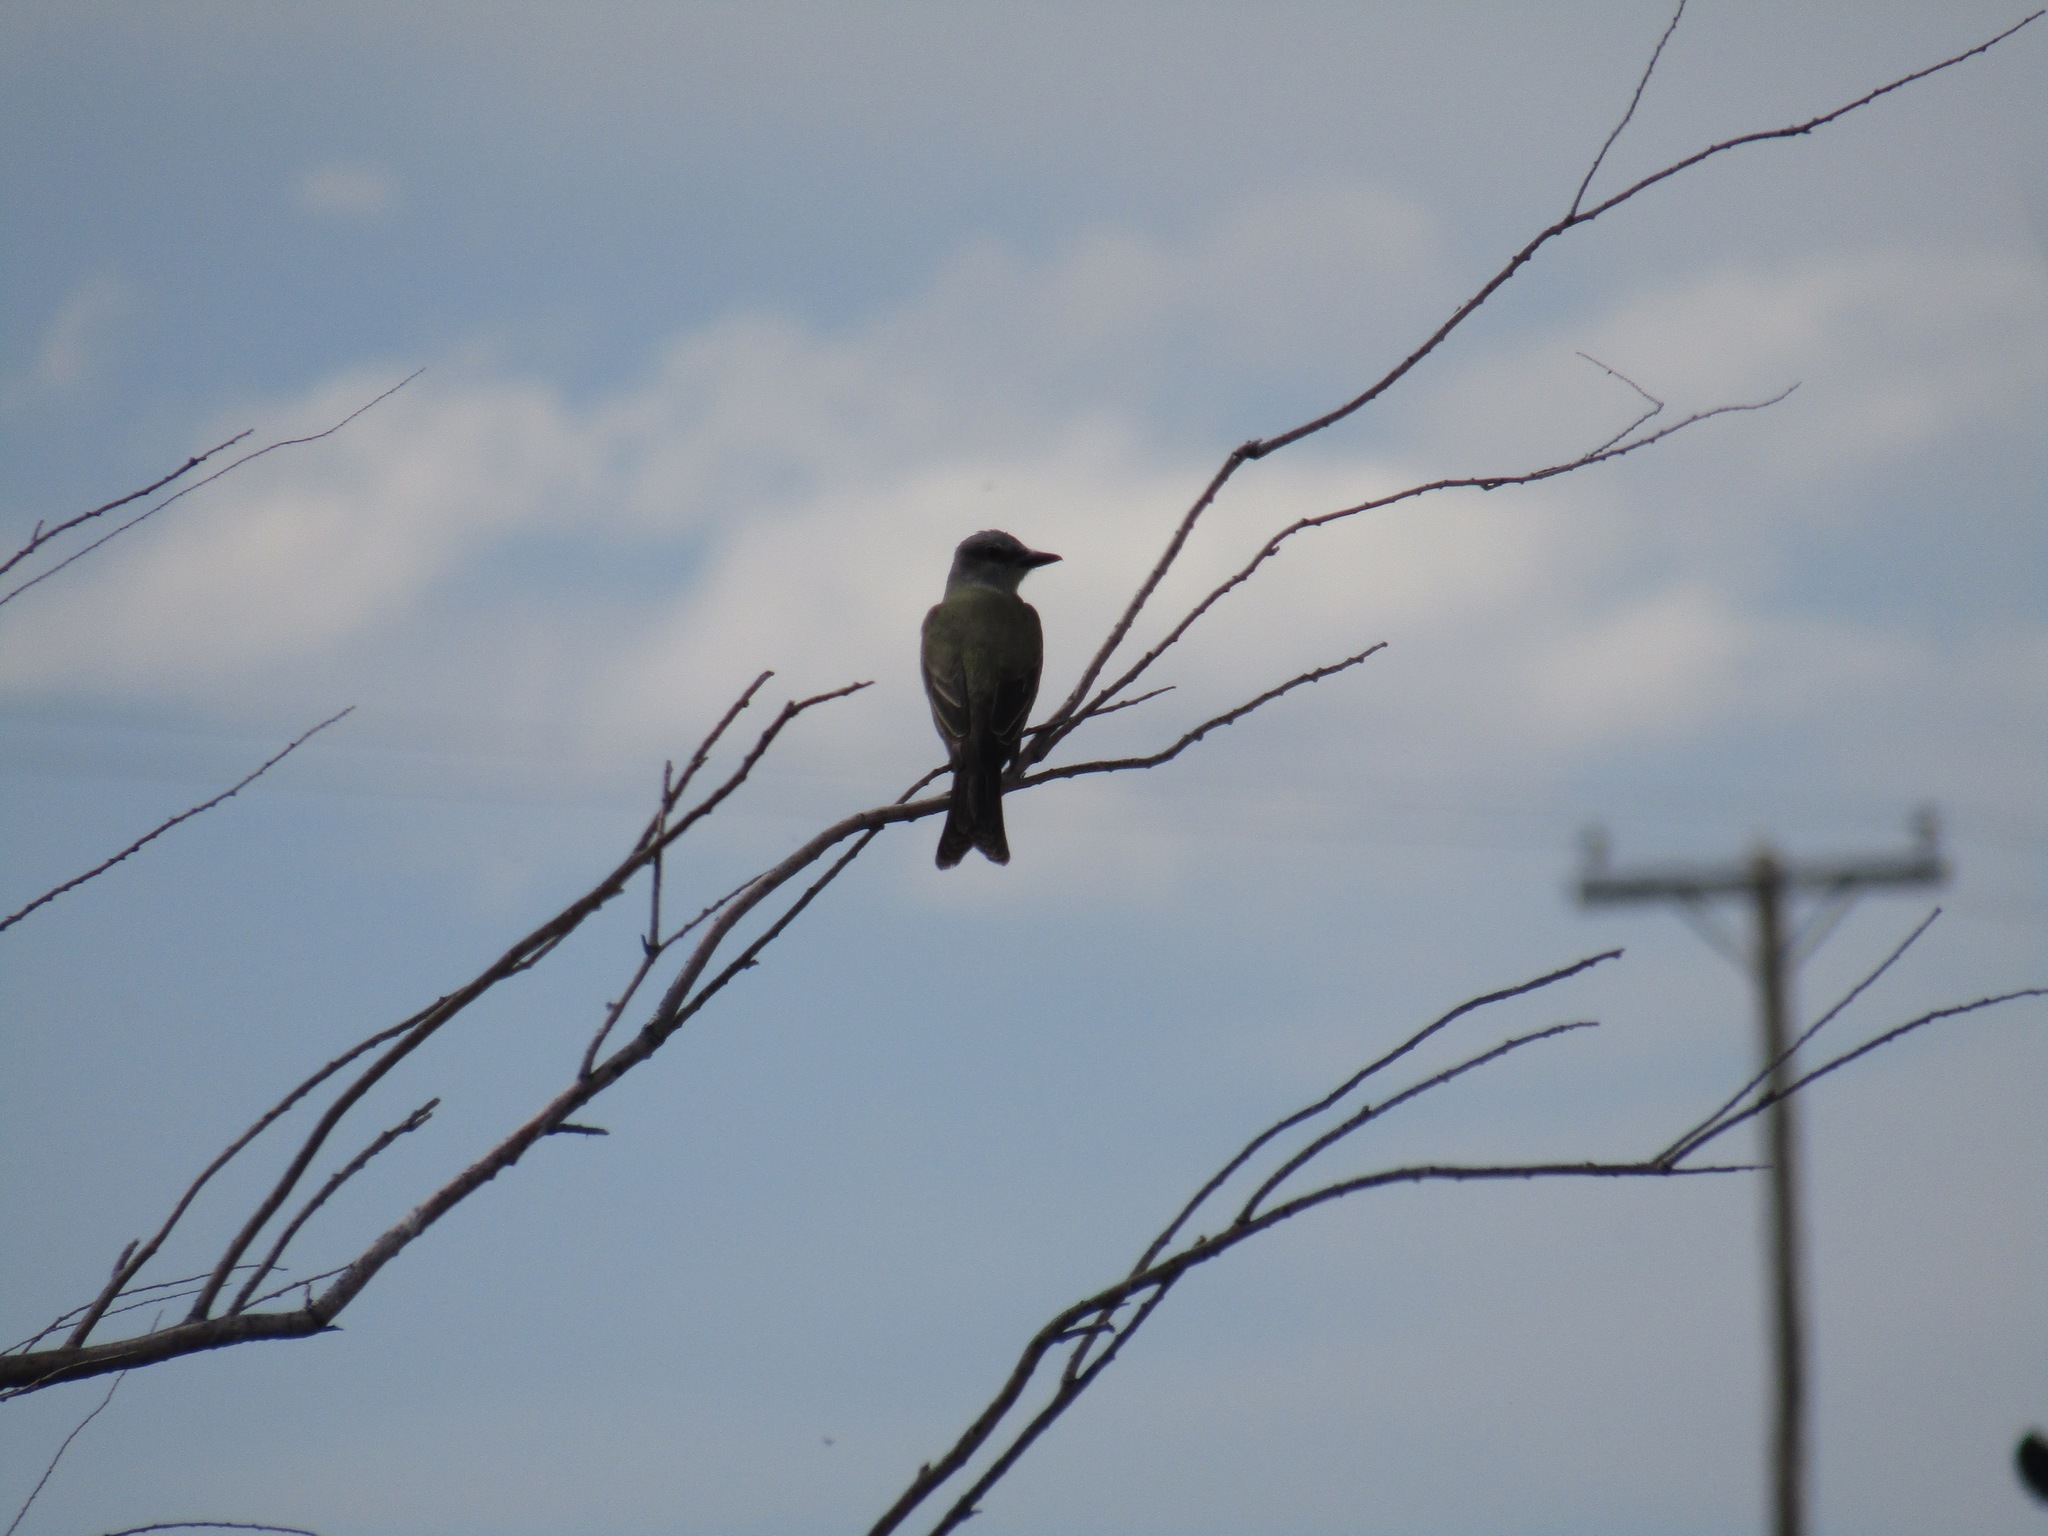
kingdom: Animalia
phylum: Chordata
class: Aves
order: Passeriformes
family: Tyrannidae
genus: Tyrannus
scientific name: Tyrannus melancholicus
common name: Tropical kingbird
